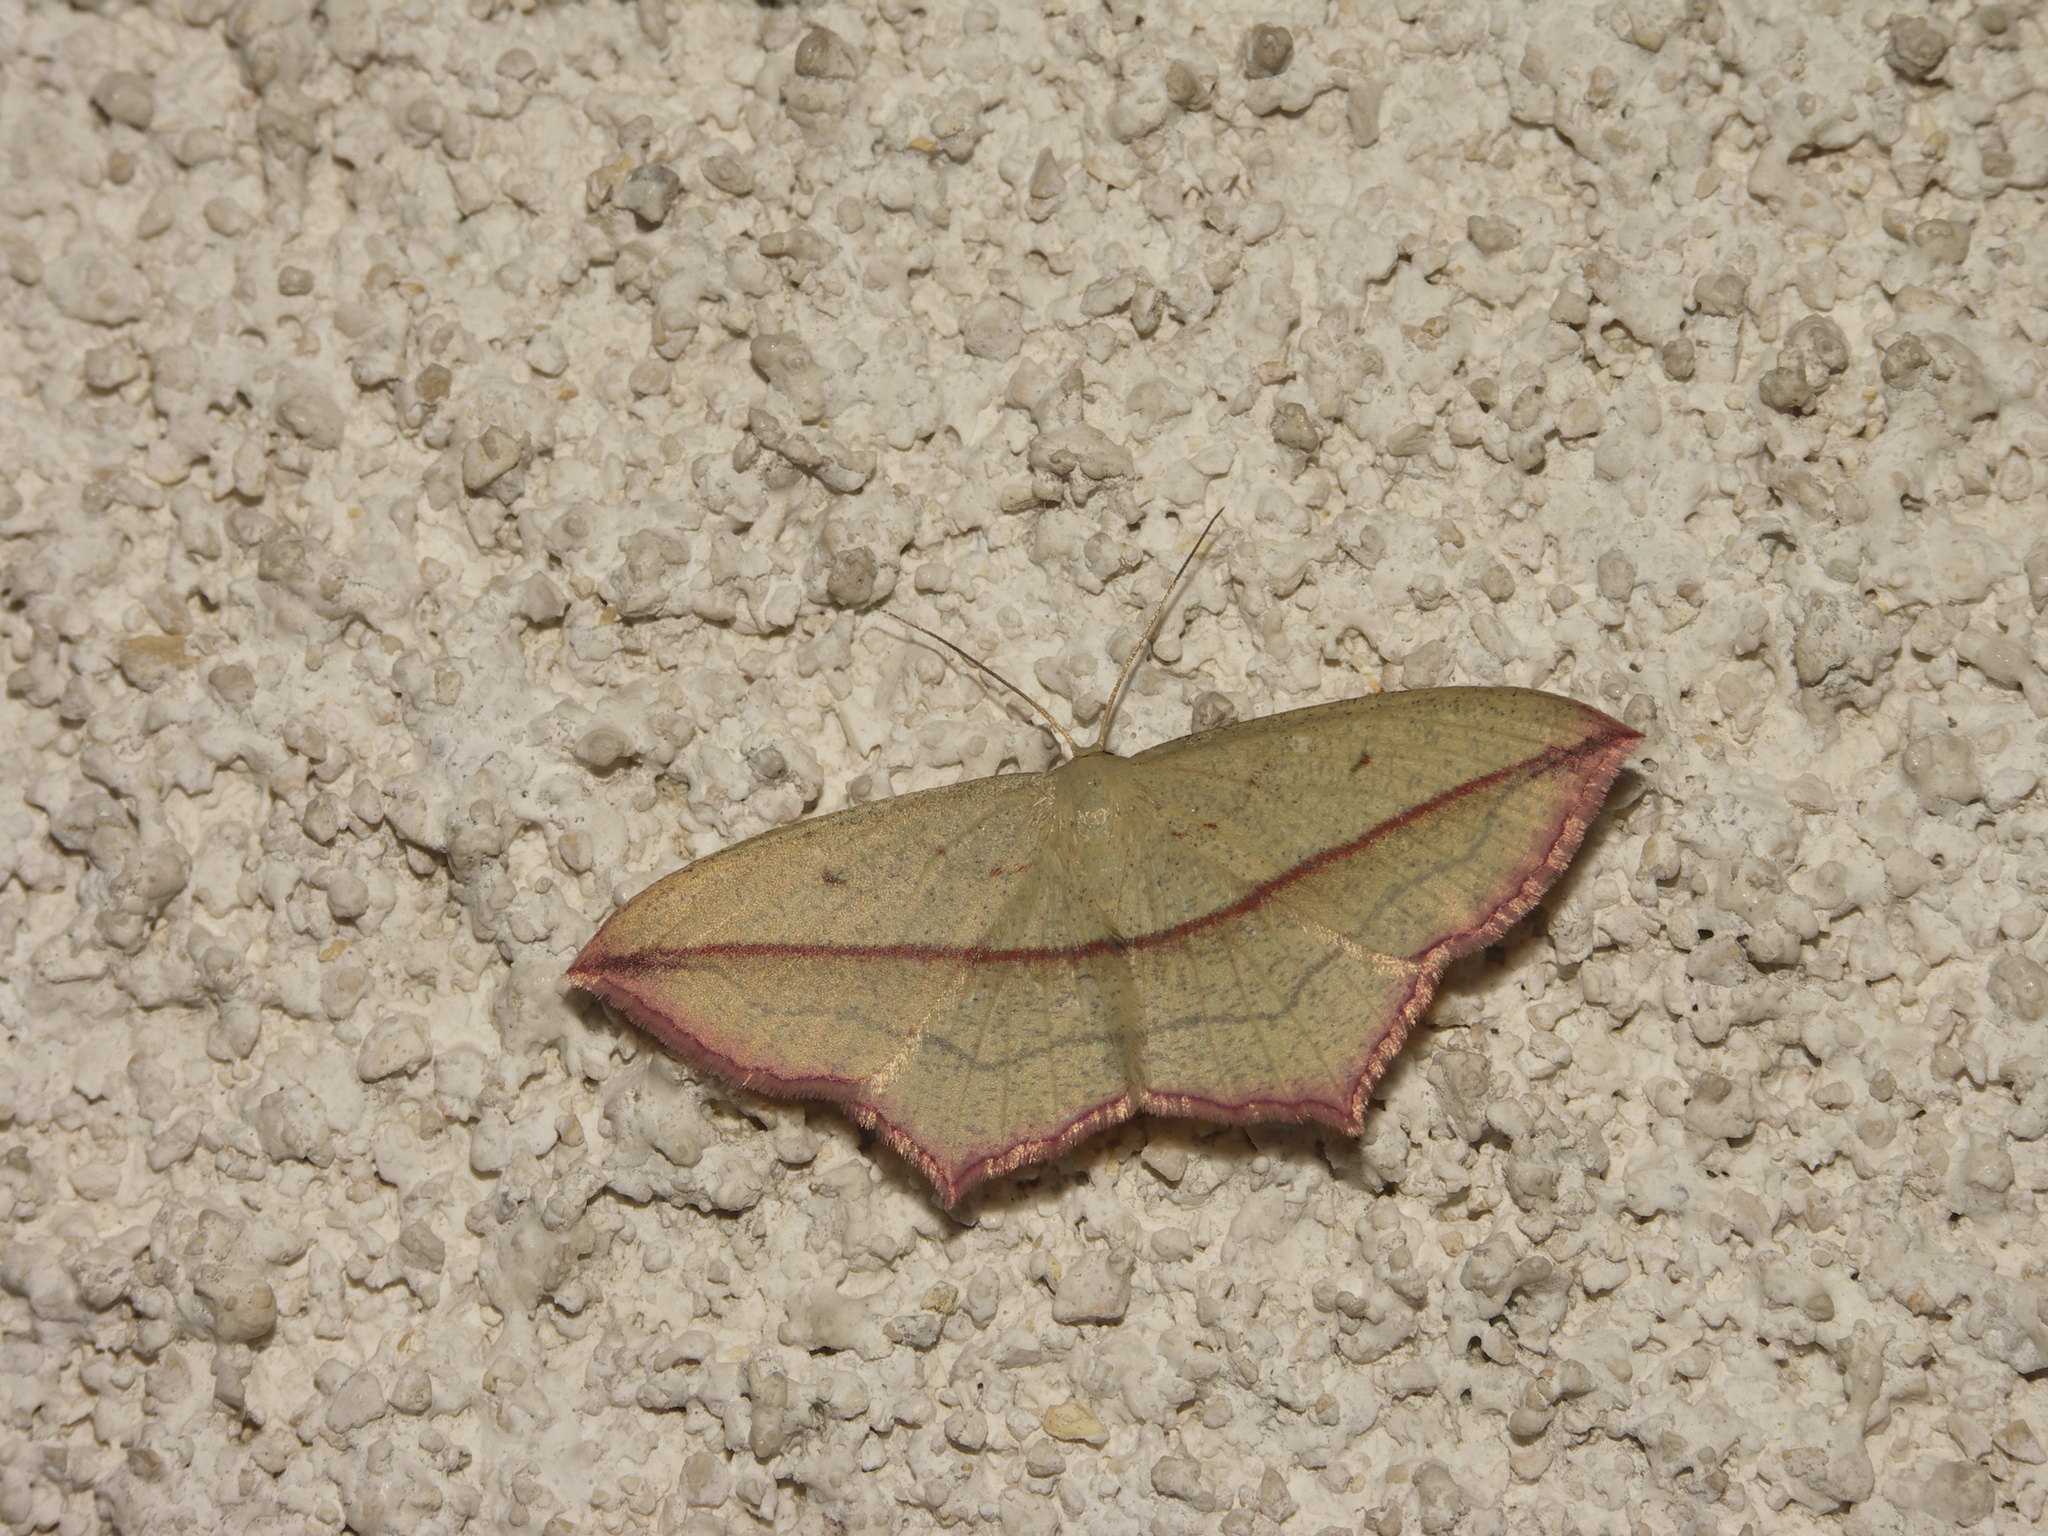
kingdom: Animalia
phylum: Arthropoda
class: Insecta
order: Lepidoptera
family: Geometridae
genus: Timandra
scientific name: Timandra comae
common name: Blood-vein
